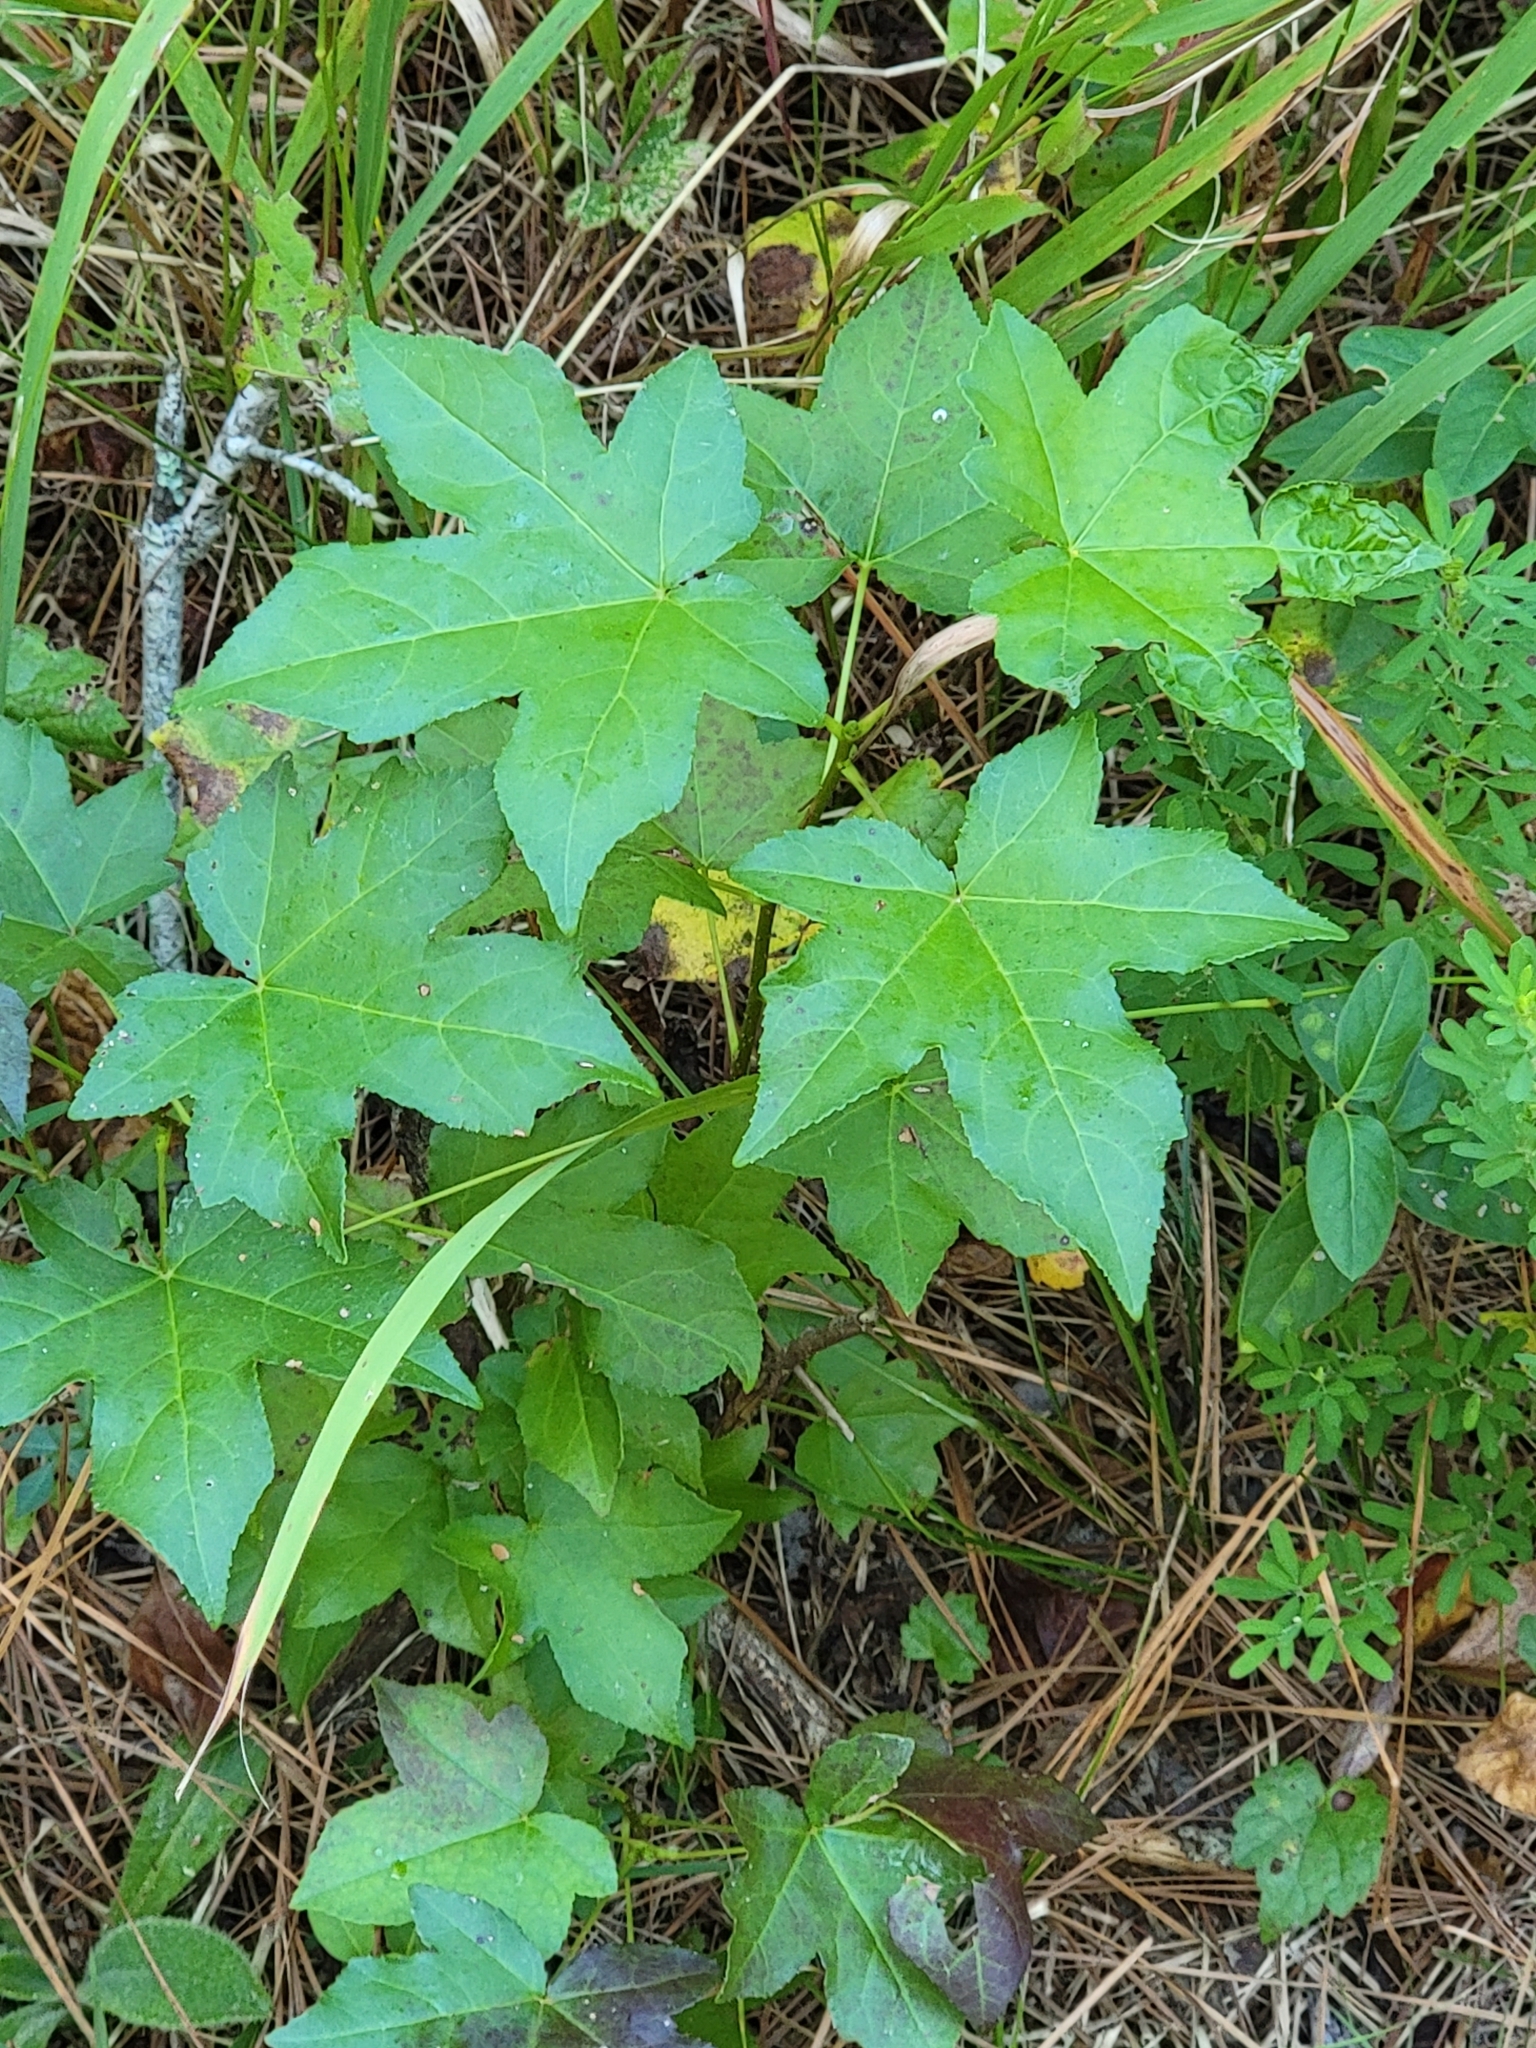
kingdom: Plantae
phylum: Tracheophyta
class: Magnoliopsida
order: Saxifragales
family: Altingiaceae
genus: Liquidambar
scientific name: Liquidambar styraciflua
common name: Sweet gum
